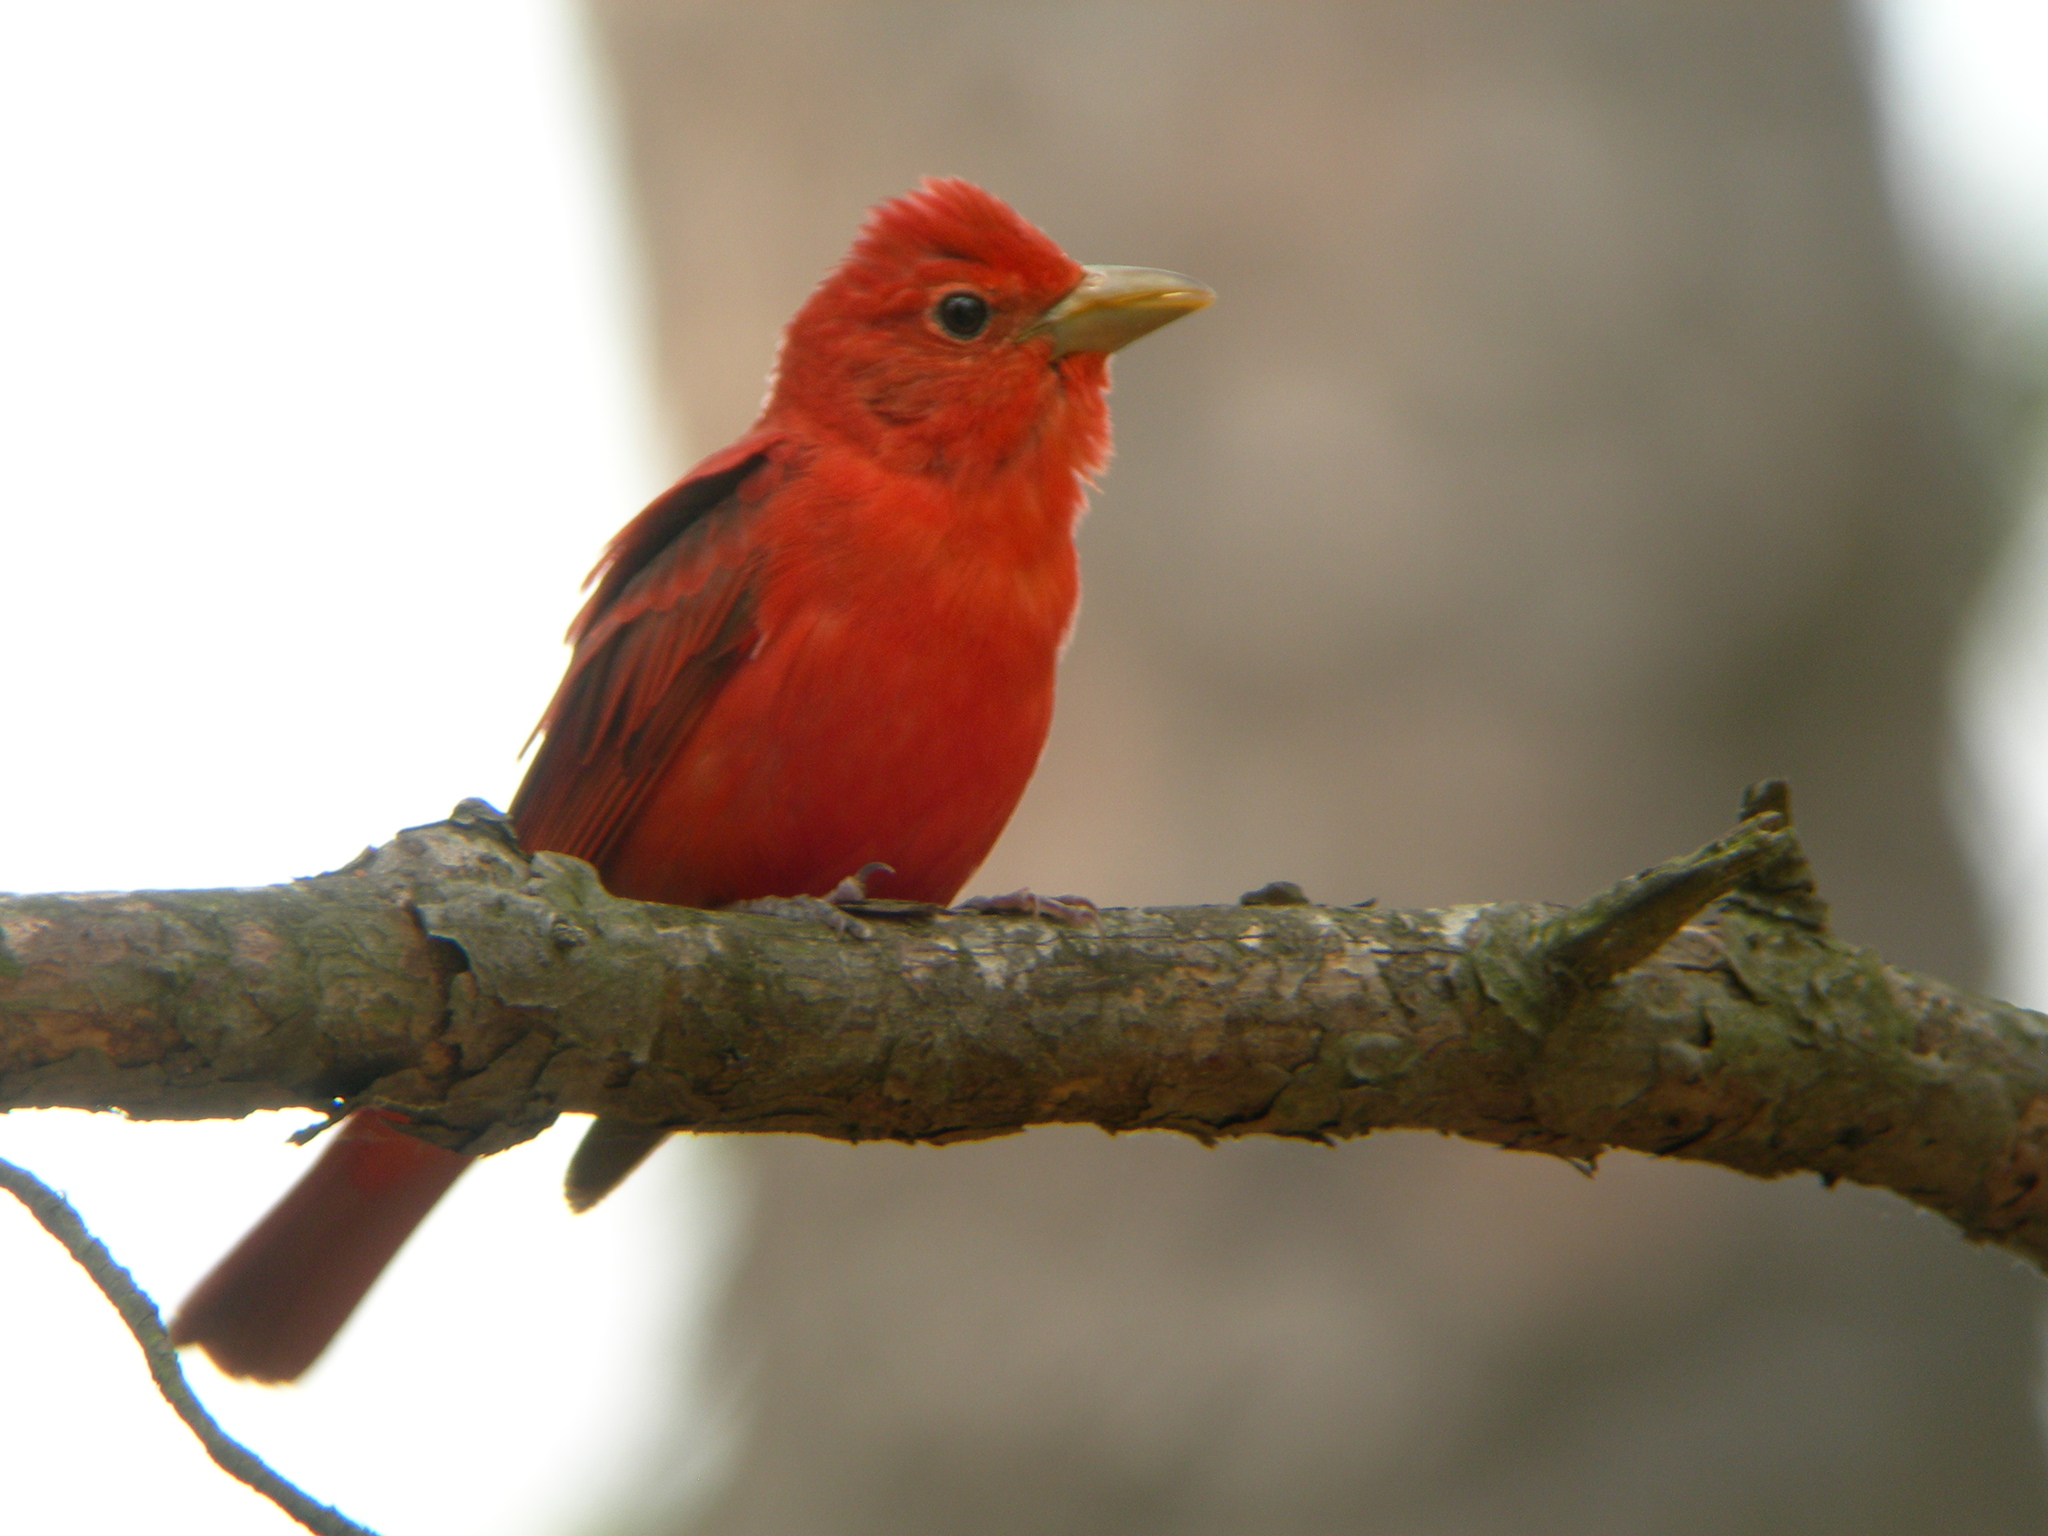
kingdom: Animalia
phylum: Chordata
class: Aves
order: Passeriformes
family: Cardinalidae
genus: Piranga
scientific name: Piranga rubra
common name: Summer tanager
